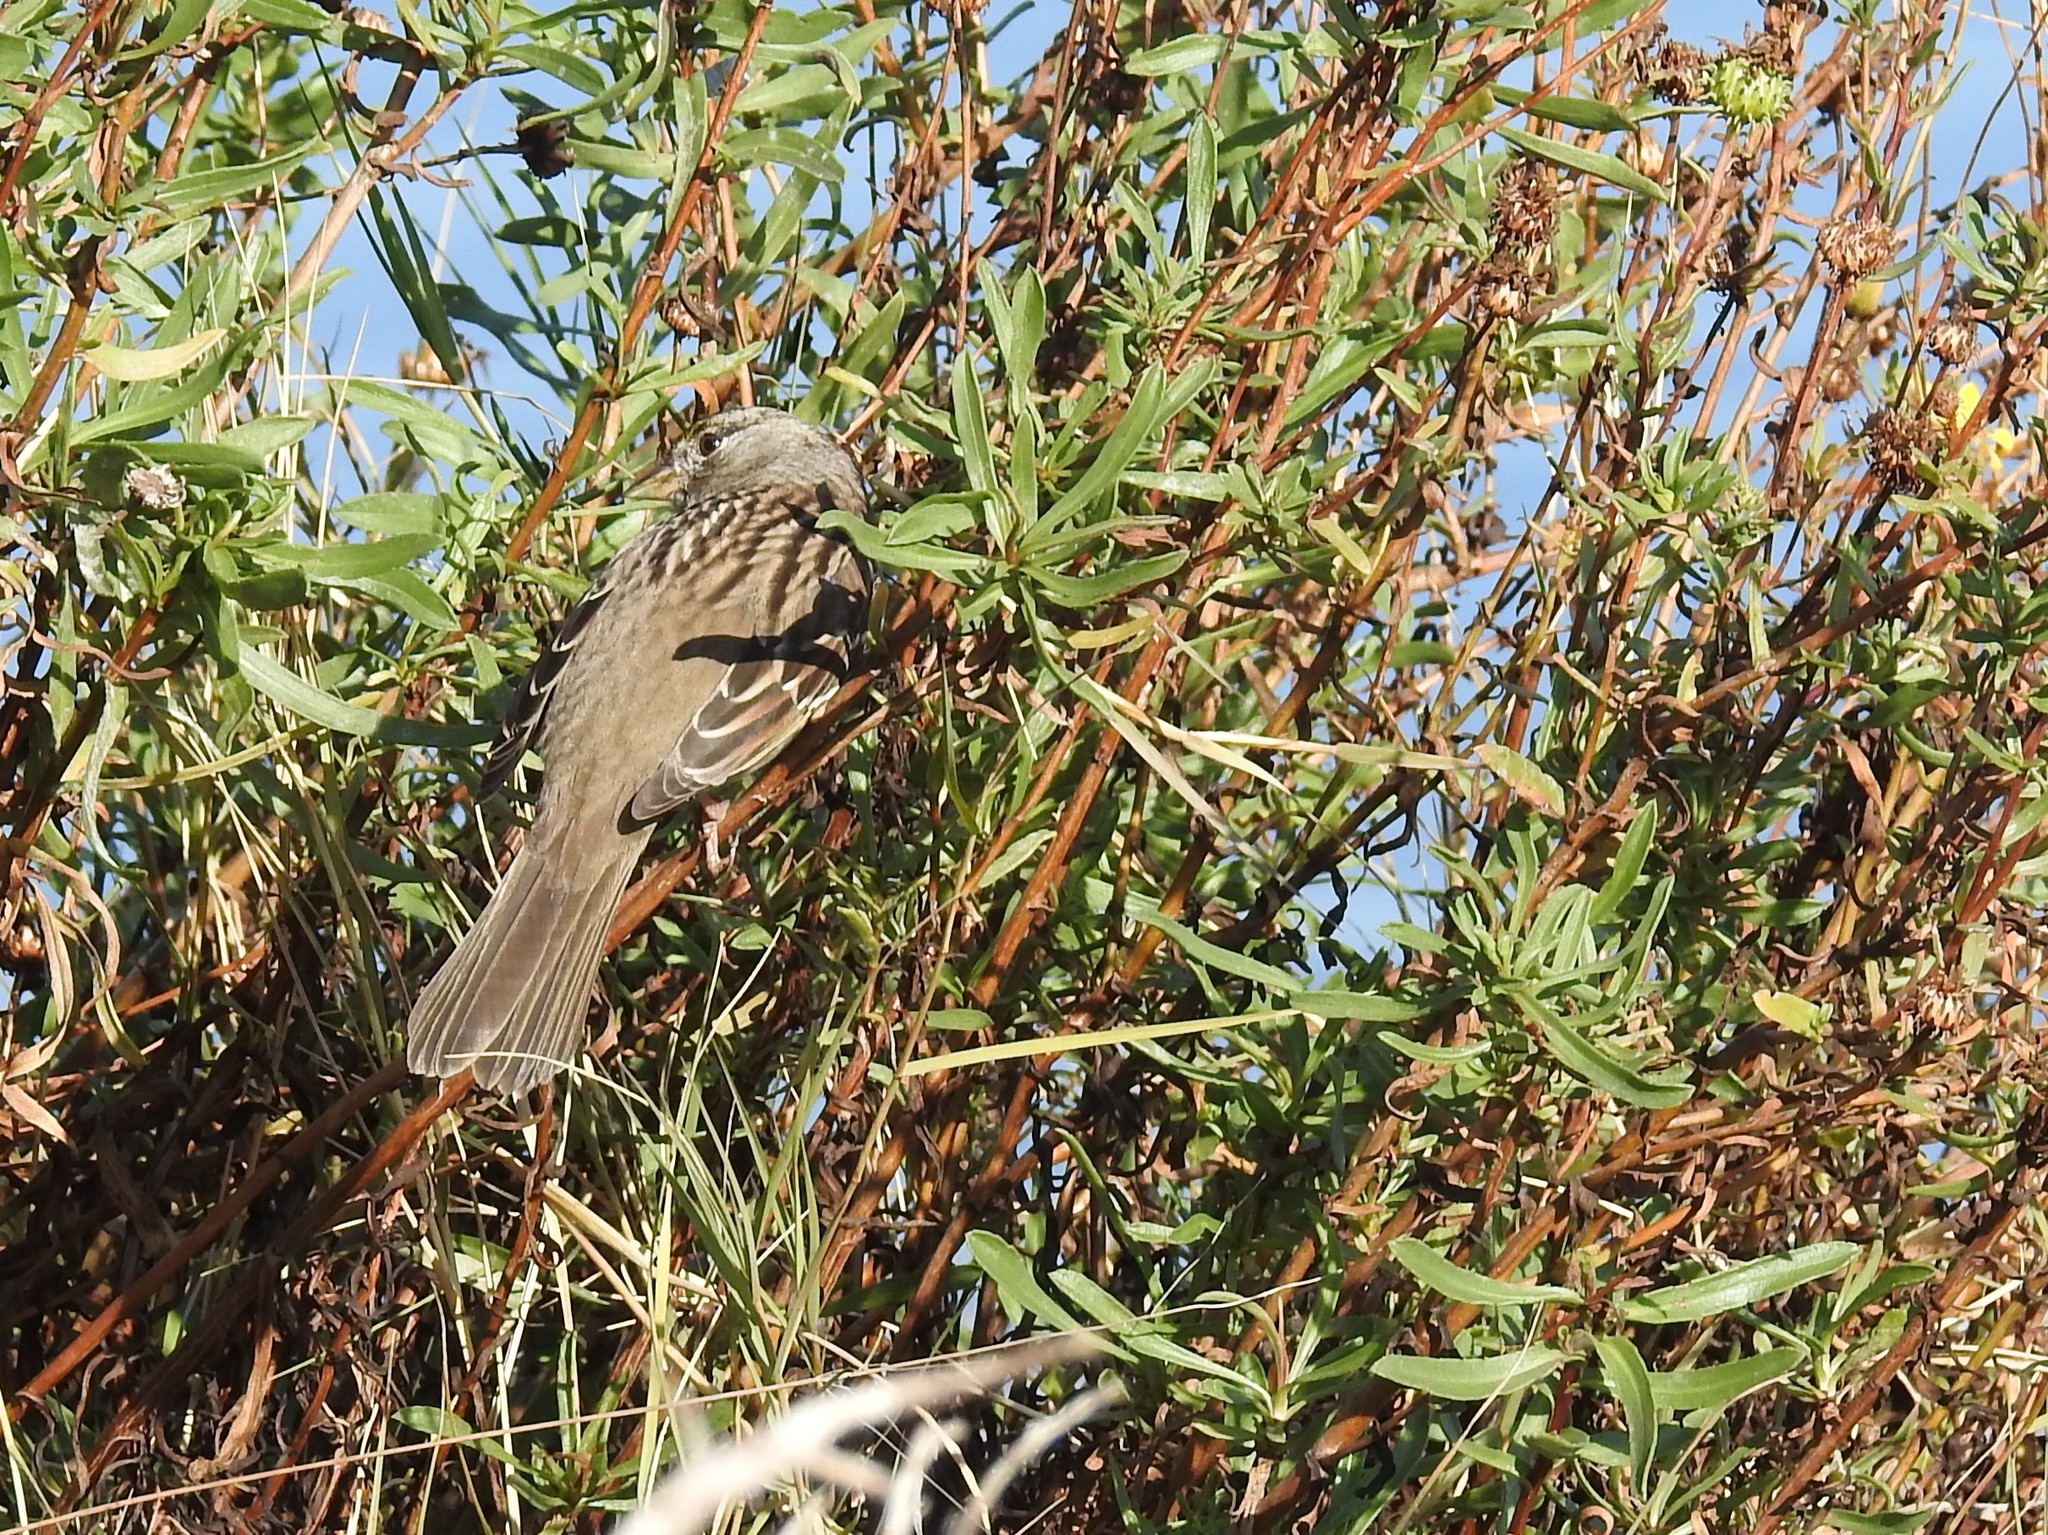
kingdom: Animalia
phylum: Chordata
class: Aves
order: Passeriformes
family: Passerellidae
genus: Zonotrichia
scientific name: Zonotrichia atricapilla
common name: Golden-crowned sparrow
